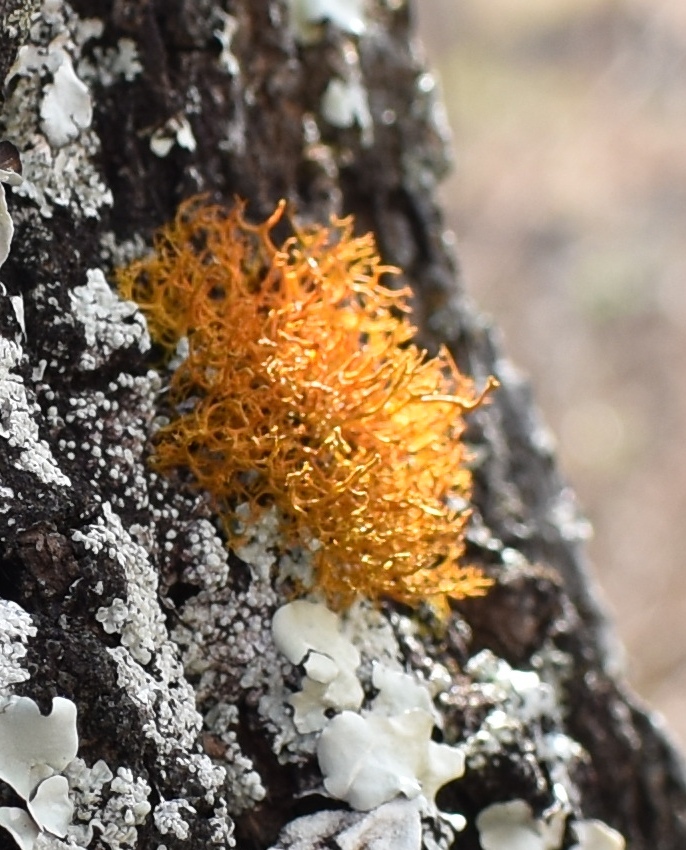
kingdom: Fungi
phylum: Ascomycota
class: Lecanoromycetes
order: Teloschistales
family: Teloschistaceae
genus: Teloschistes
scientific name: Teloschistes flavicans
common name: Golden hair-lichen
